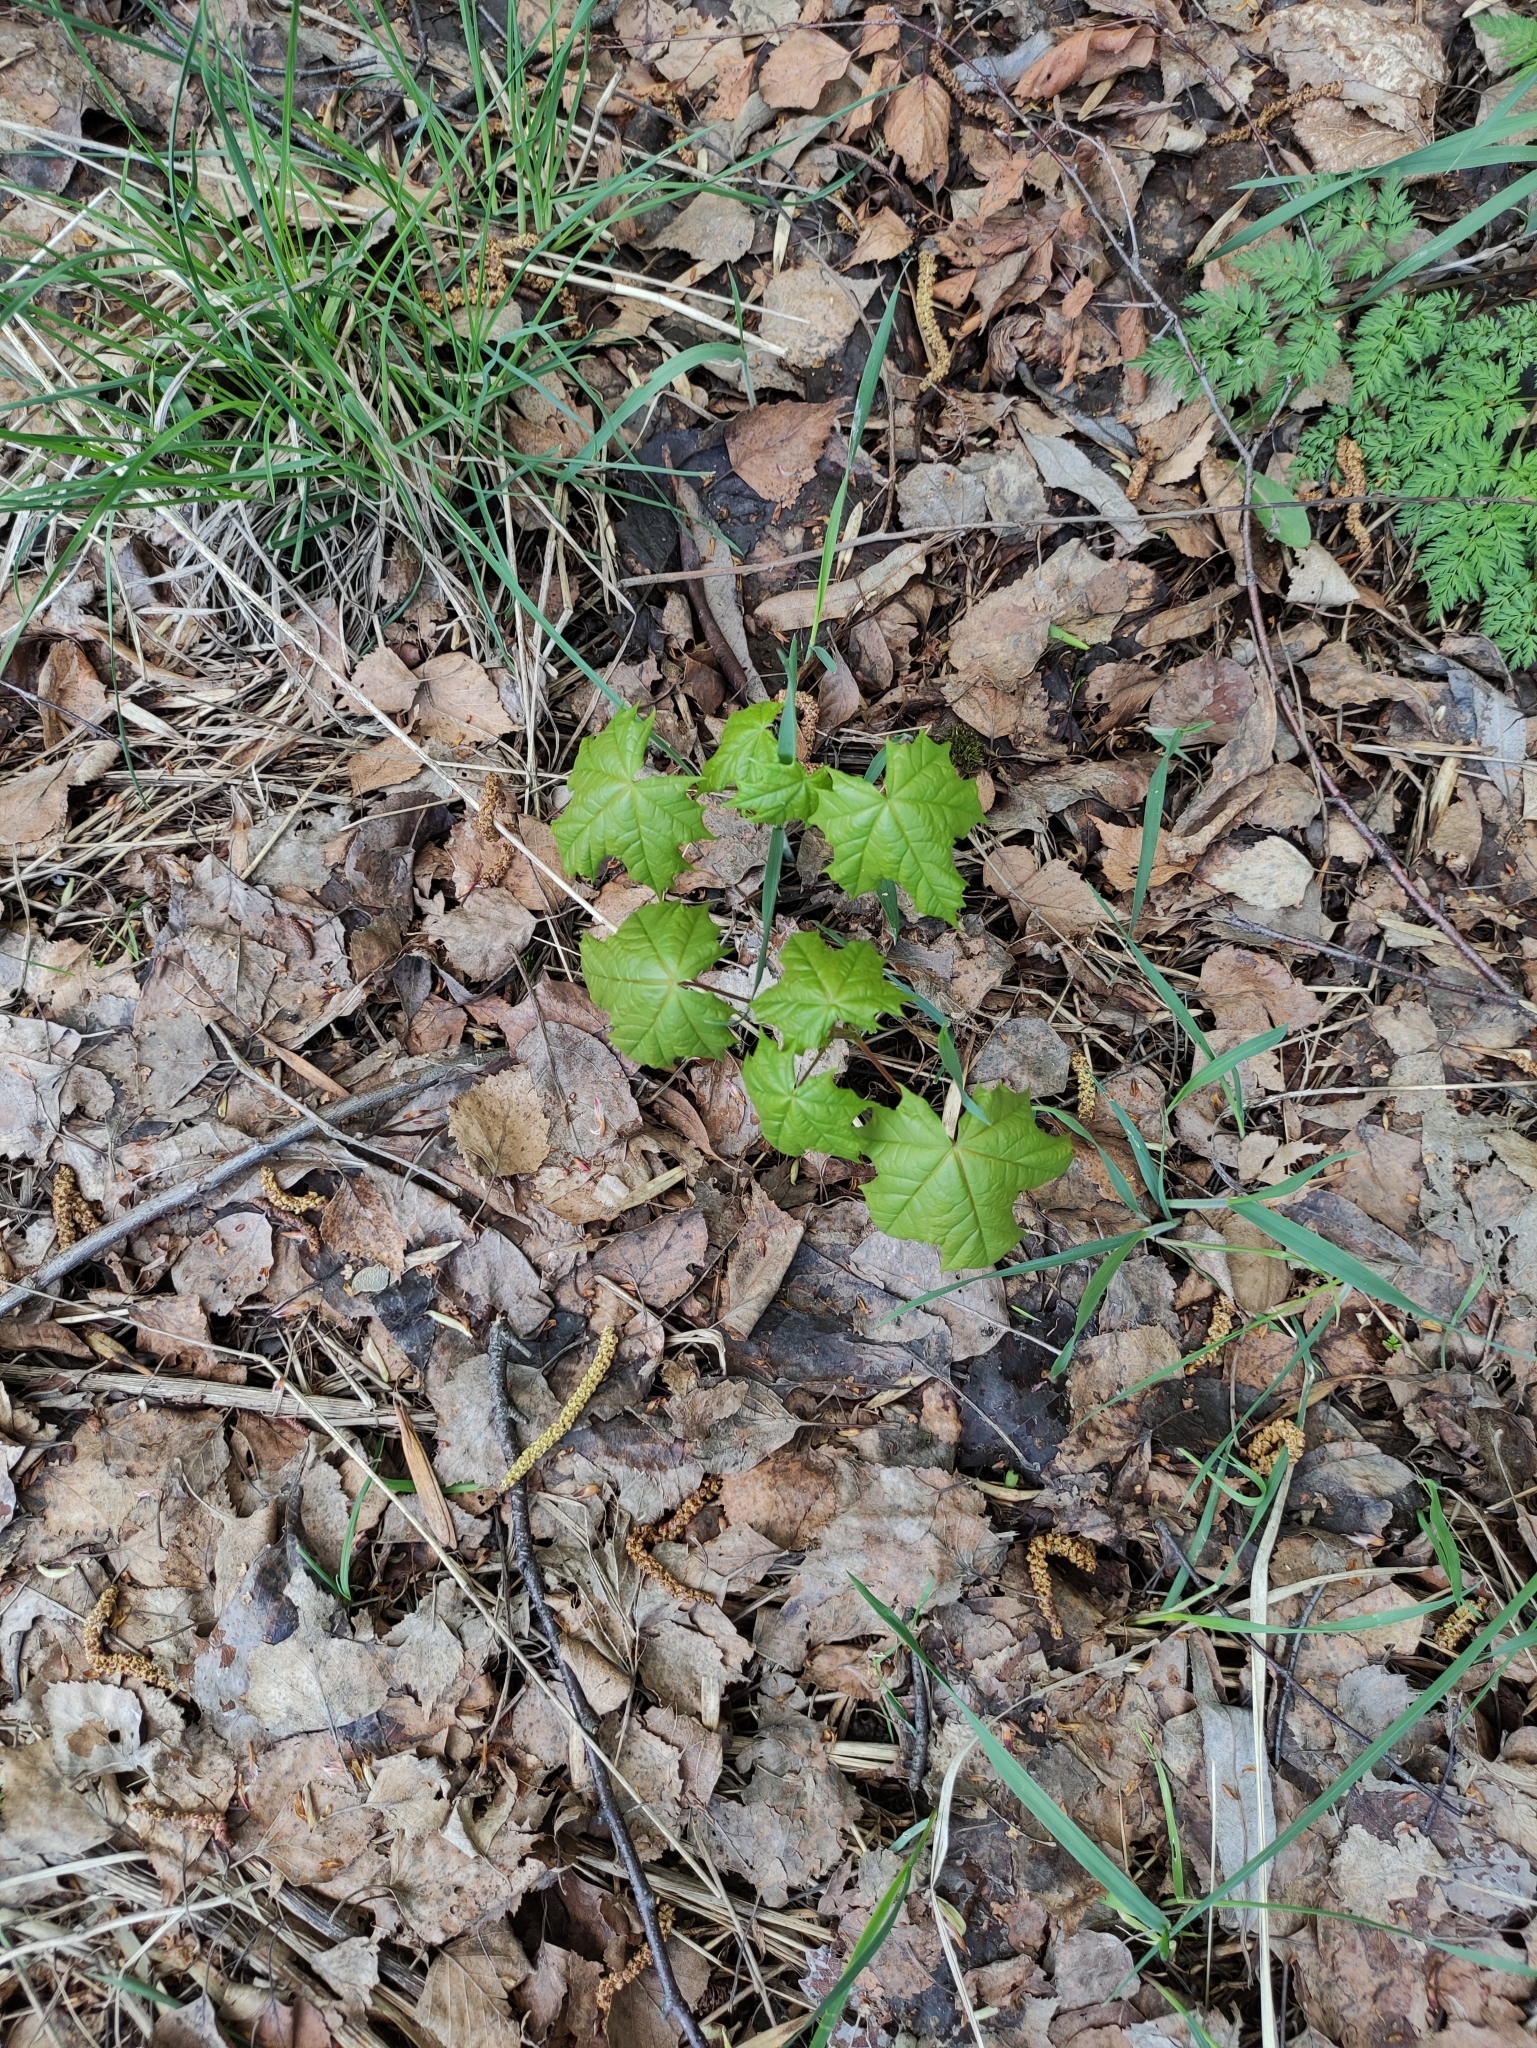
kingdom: Plantae
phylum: Tracheophyta
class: Magnoliopsida
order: Sapindales
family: Sapindaceae
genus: Acer
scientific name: Acer platanoides
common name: Norway maple
